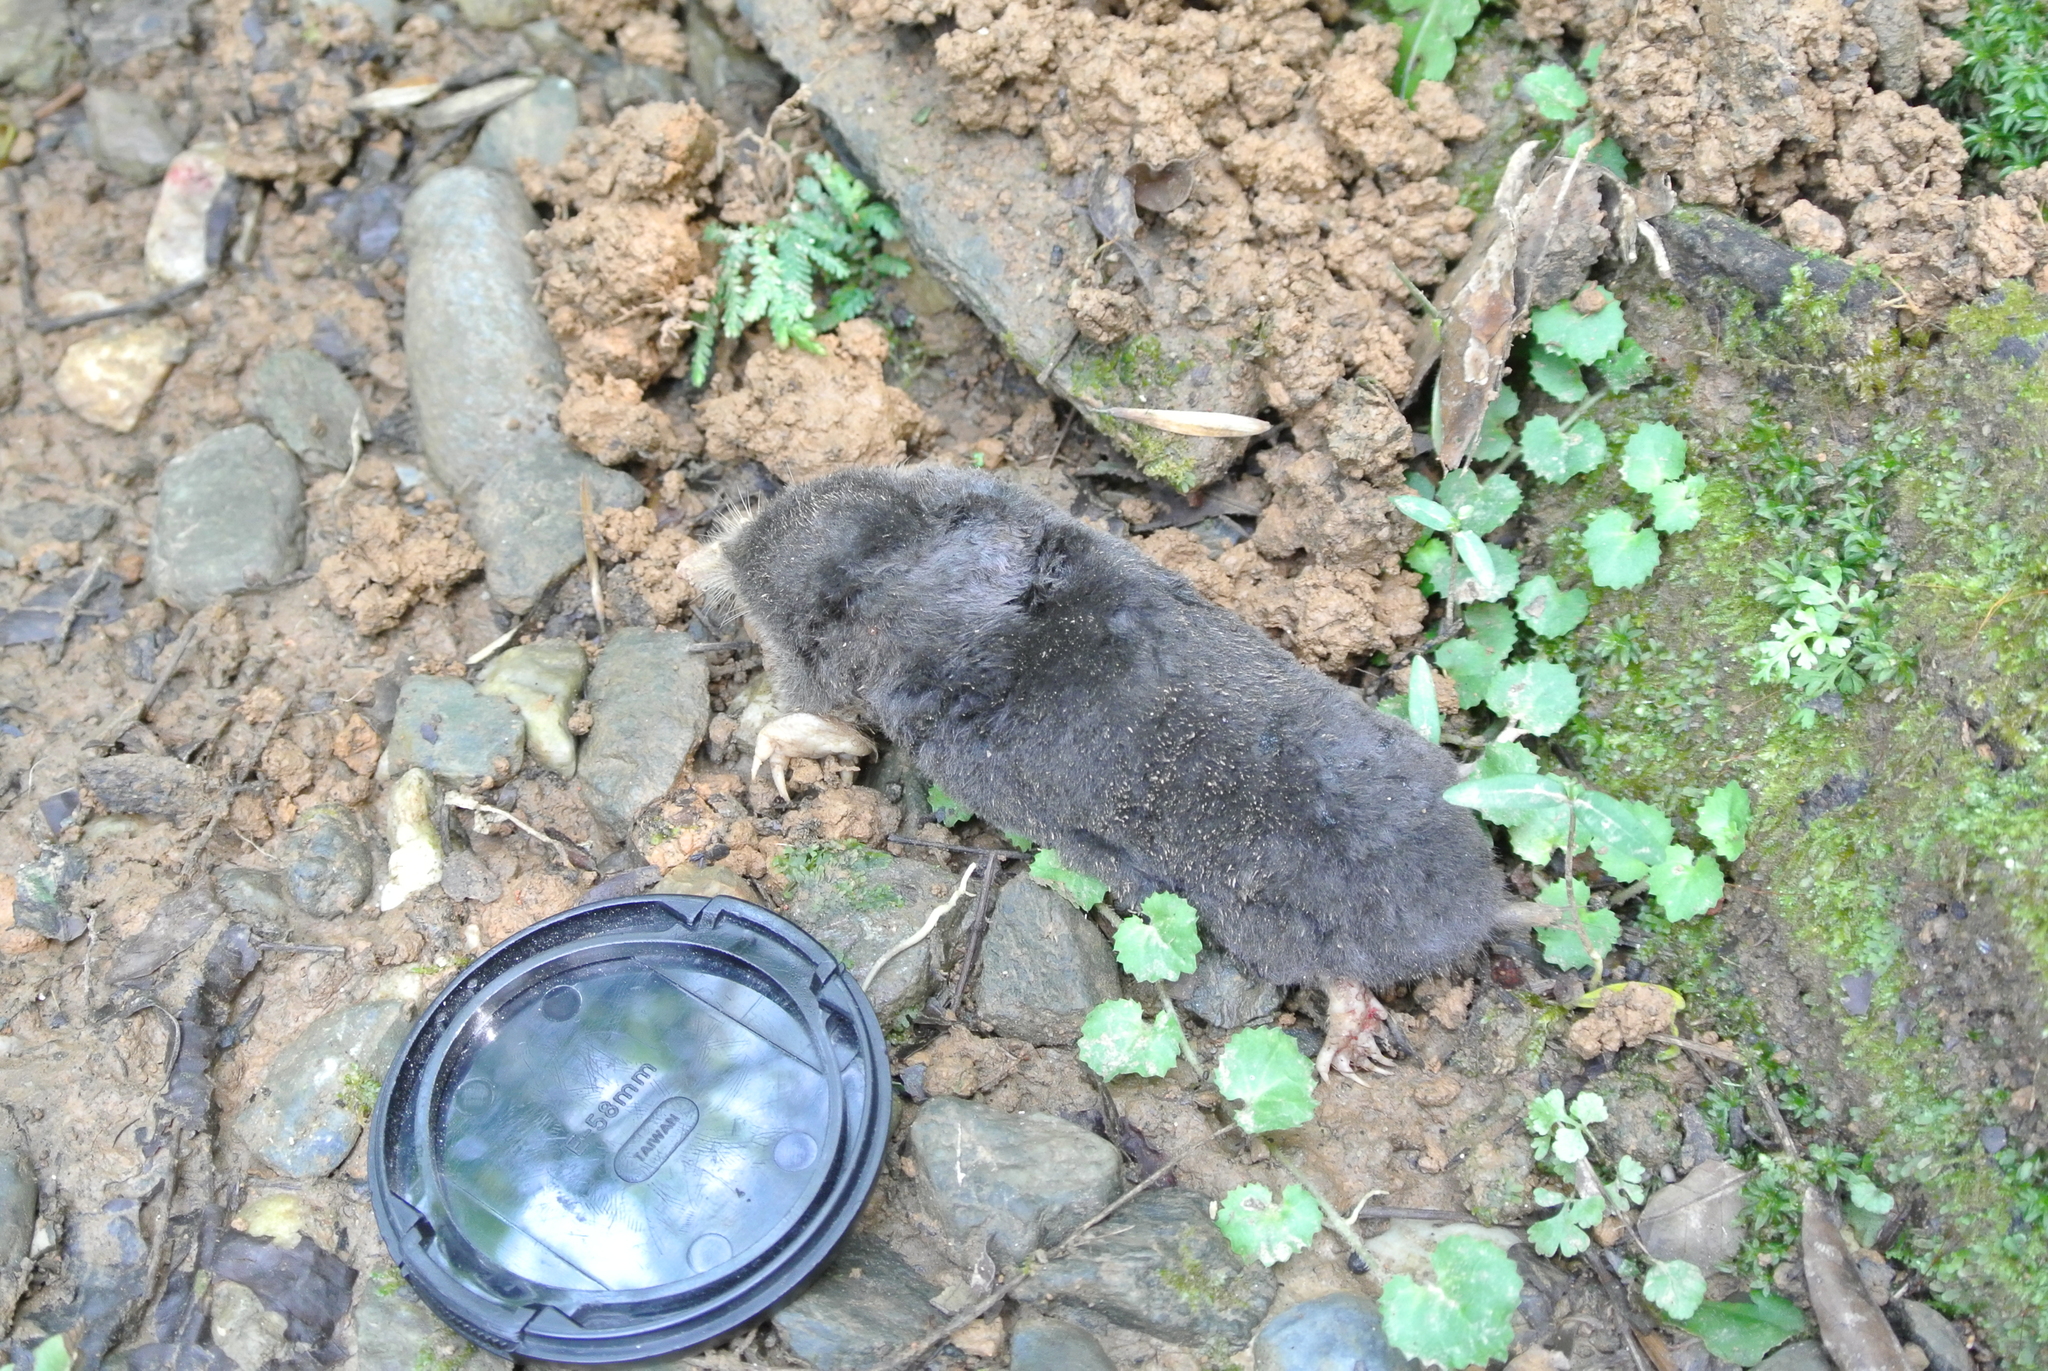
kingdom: Animalia
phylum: Chordata
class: Mammalia
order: Soricomorpha
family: Talpidae
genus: Mogera
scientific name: Mogera kanoana
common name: Kano’s mole
